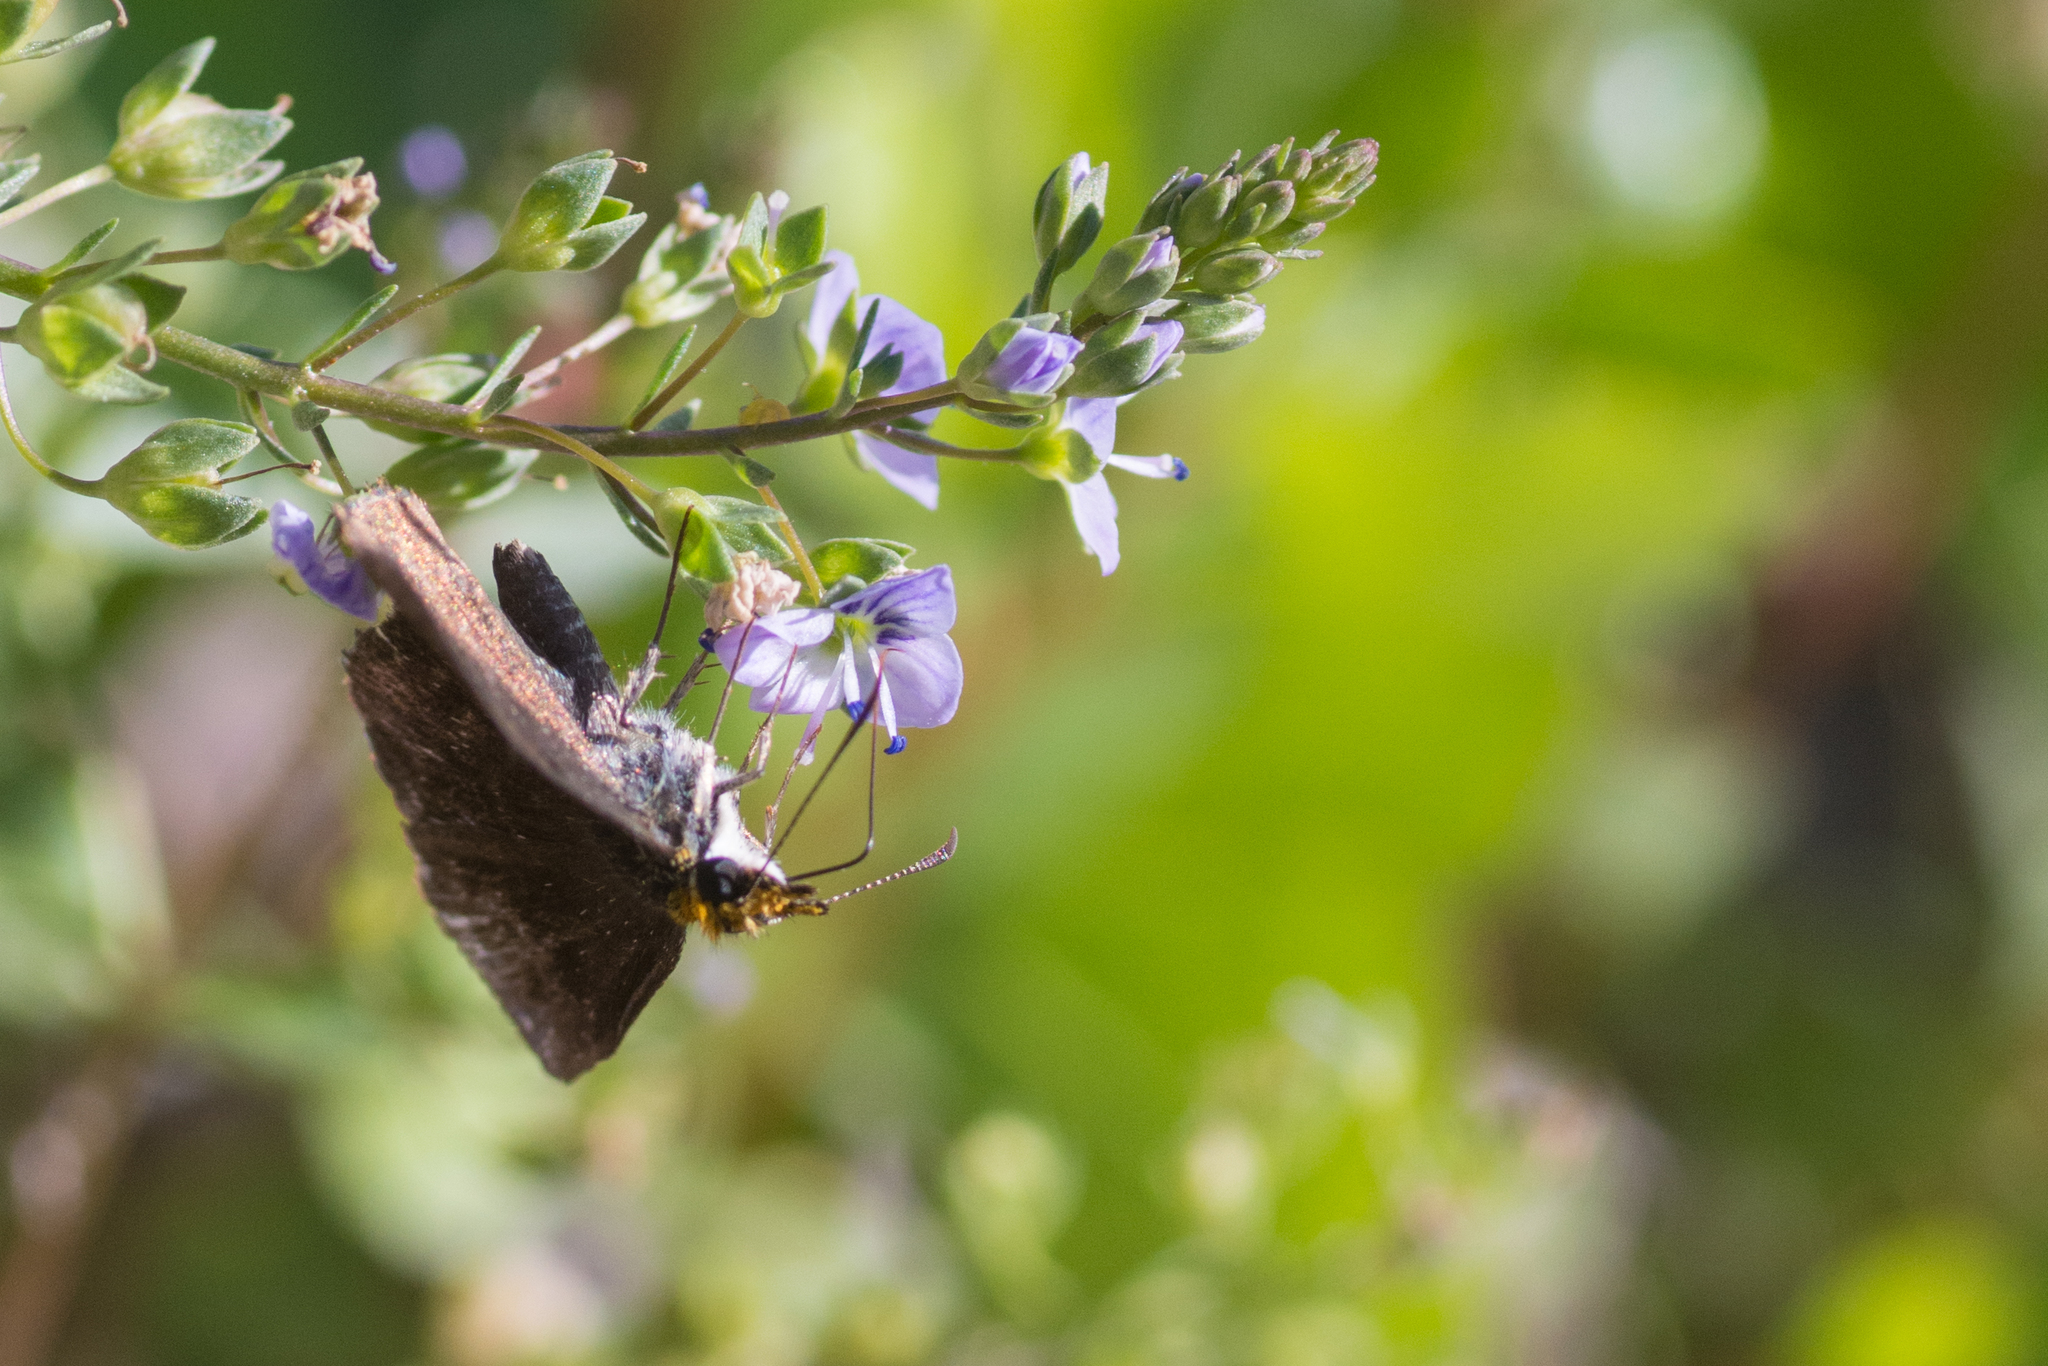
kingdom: Animalia
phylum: Arthropoda
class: Insecta
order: Lepidoptera
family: Hesperiidae
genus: Staphylus
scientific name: Staphylus ceos
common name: Golden-headed scallopwing
